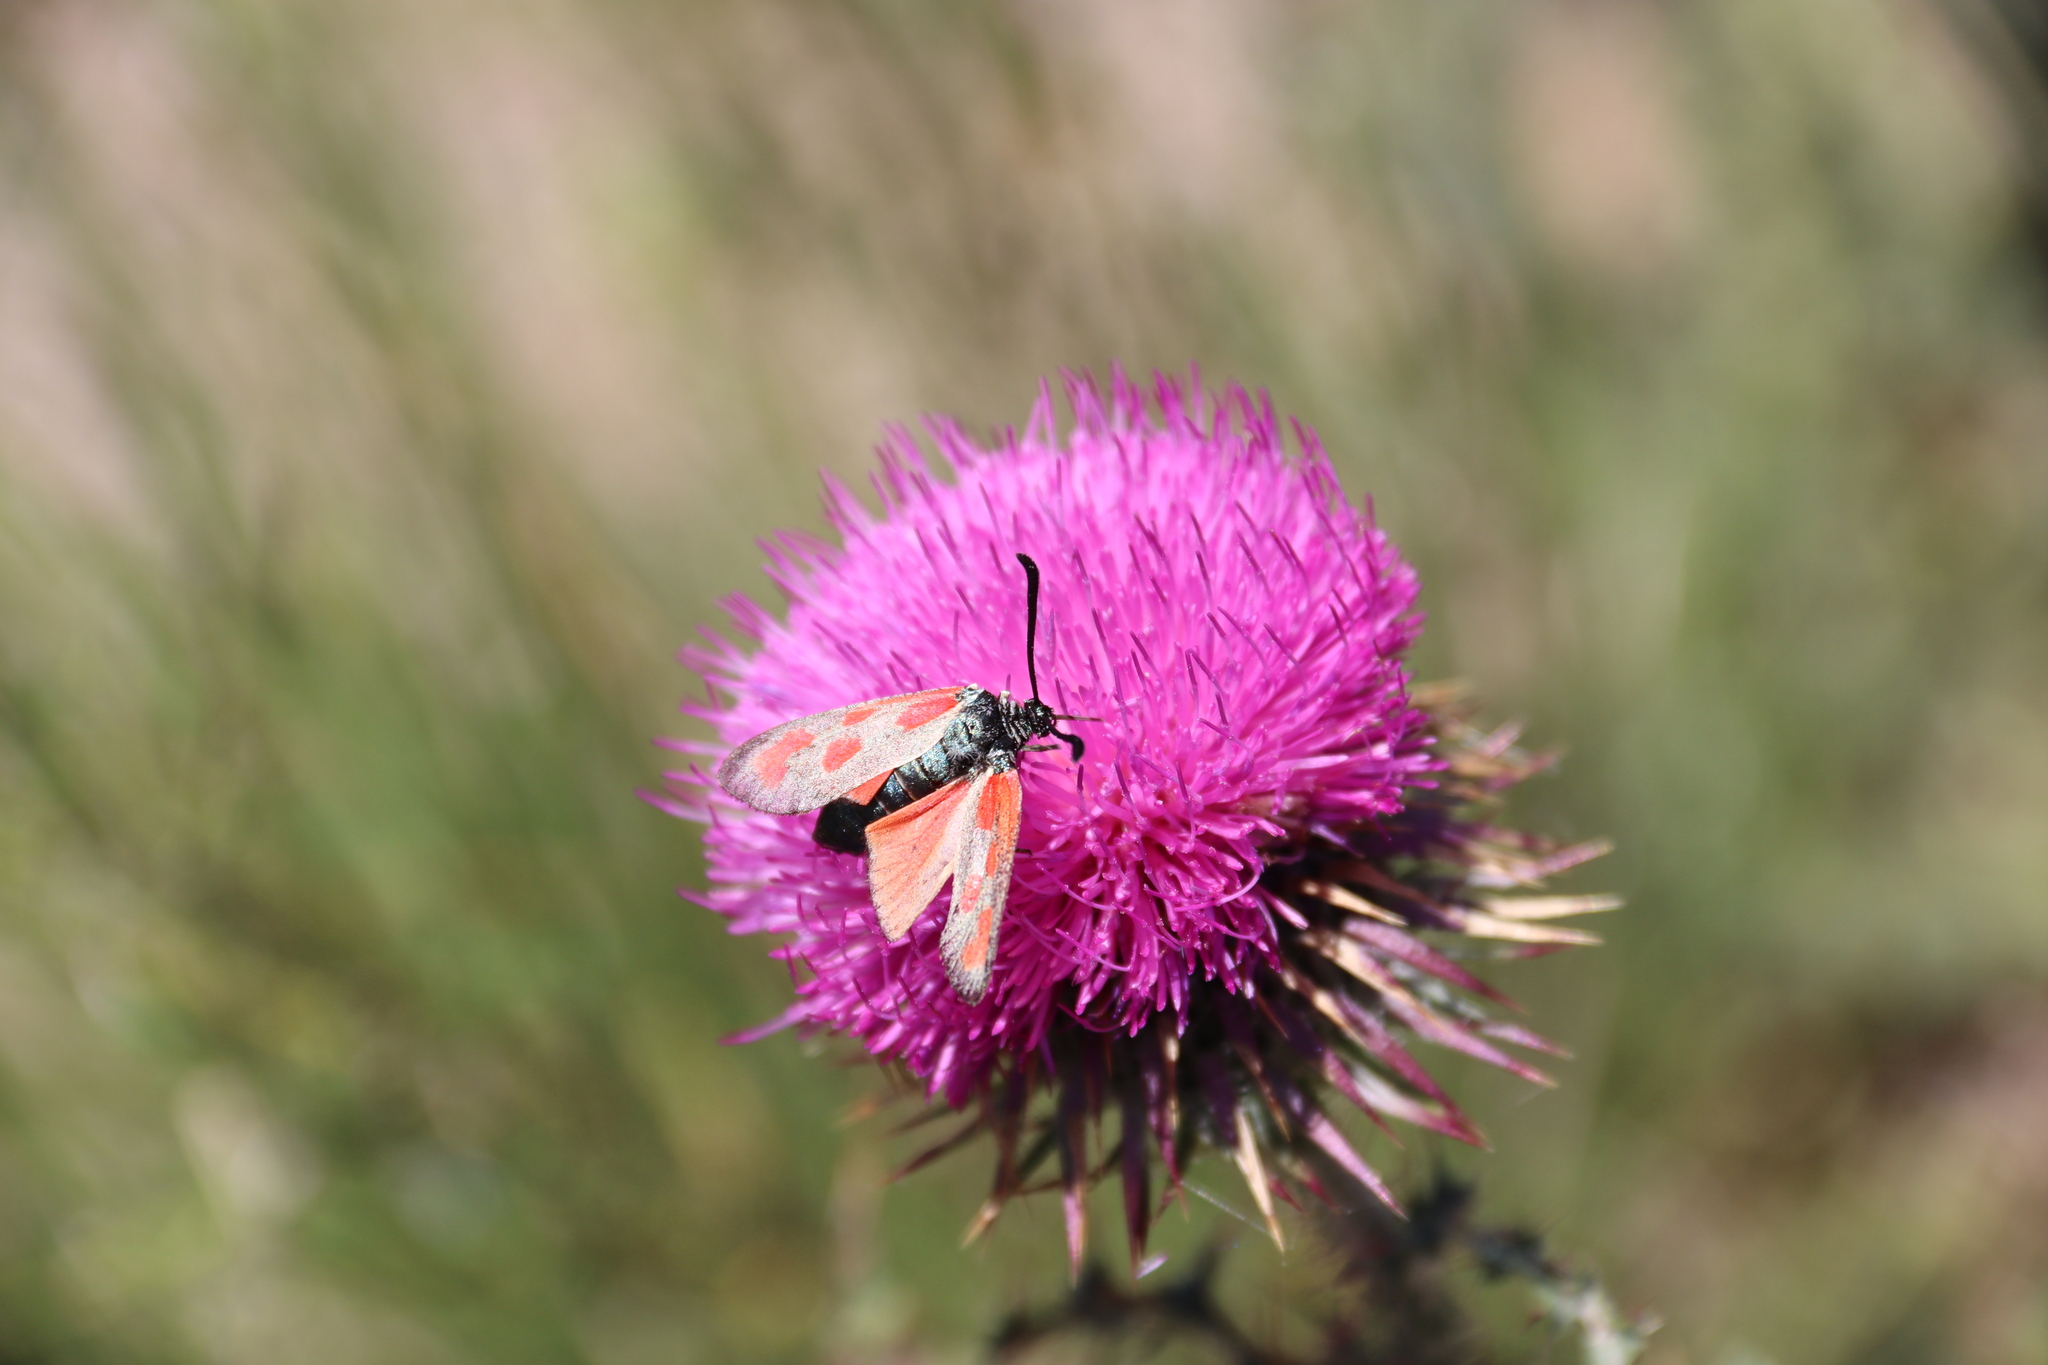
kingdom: Animalia
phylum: Arthropoda
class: Insecta
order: Lepidoptera
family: Zygaenidae
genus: Zygaena
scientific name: Zygaena loti
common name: Slender scotch burnet
